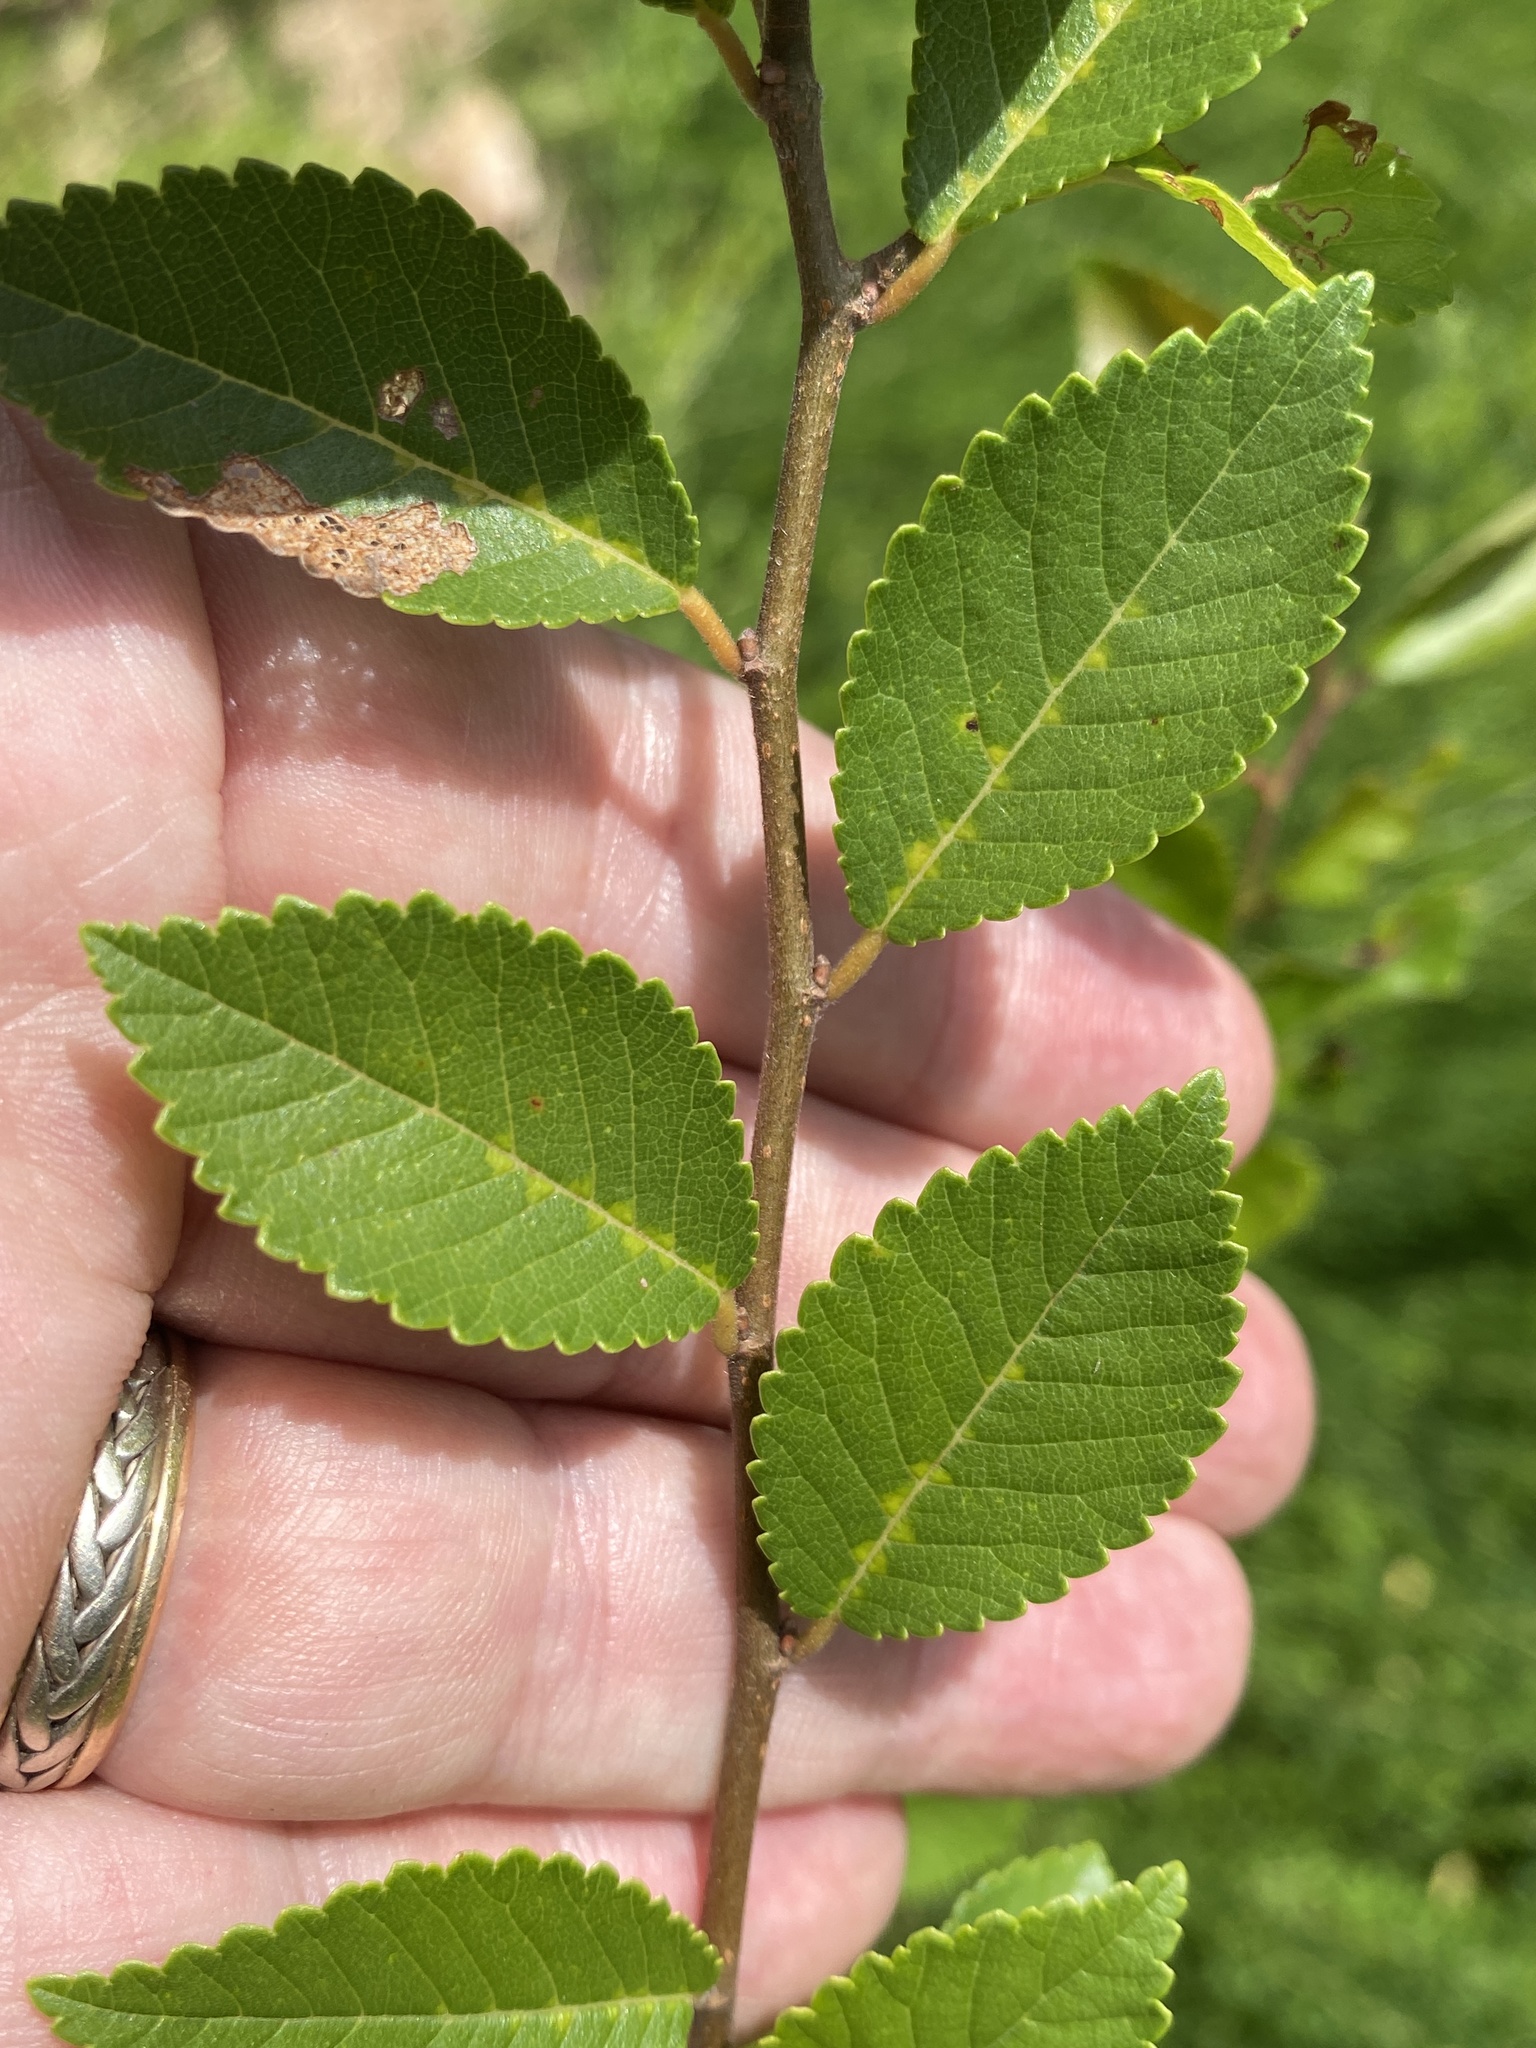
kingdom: Plantae
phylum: Tracheophyta
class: Magnoliopsida
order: Rosales
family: Ulmaceae
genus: Ulmus
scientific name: Ulmus parvifolia
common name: Chinese elm
